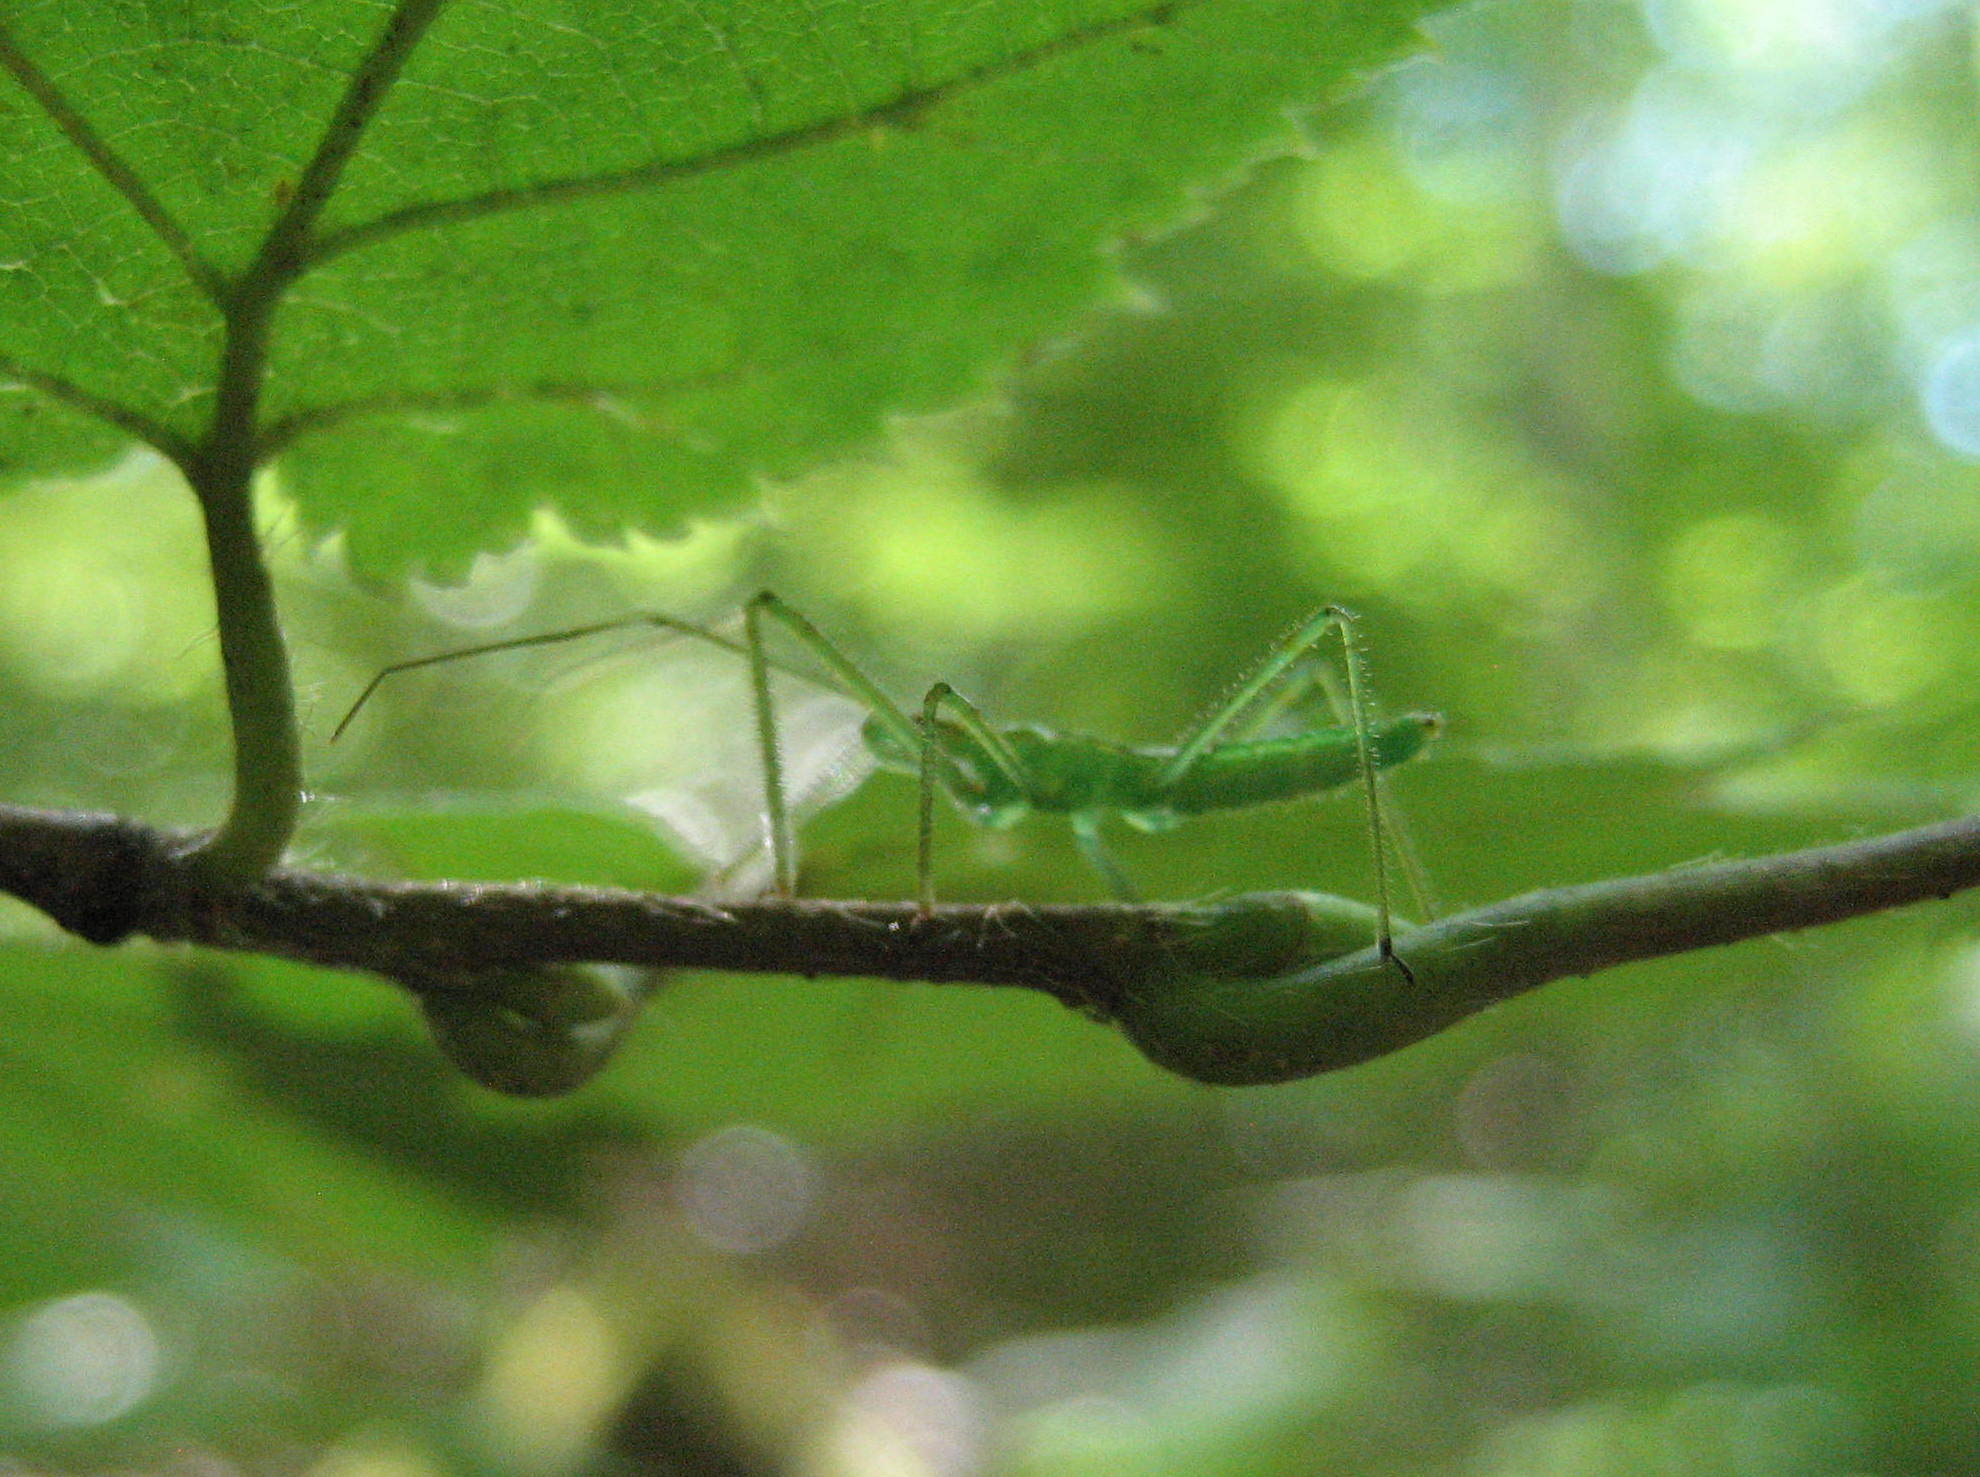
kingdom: Animalia
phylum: Arthropoda
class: Insecta
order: Hemiptera
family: Reduviidae
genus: Zelus
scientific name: Zelus luridus
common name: Pale green assassin bug
